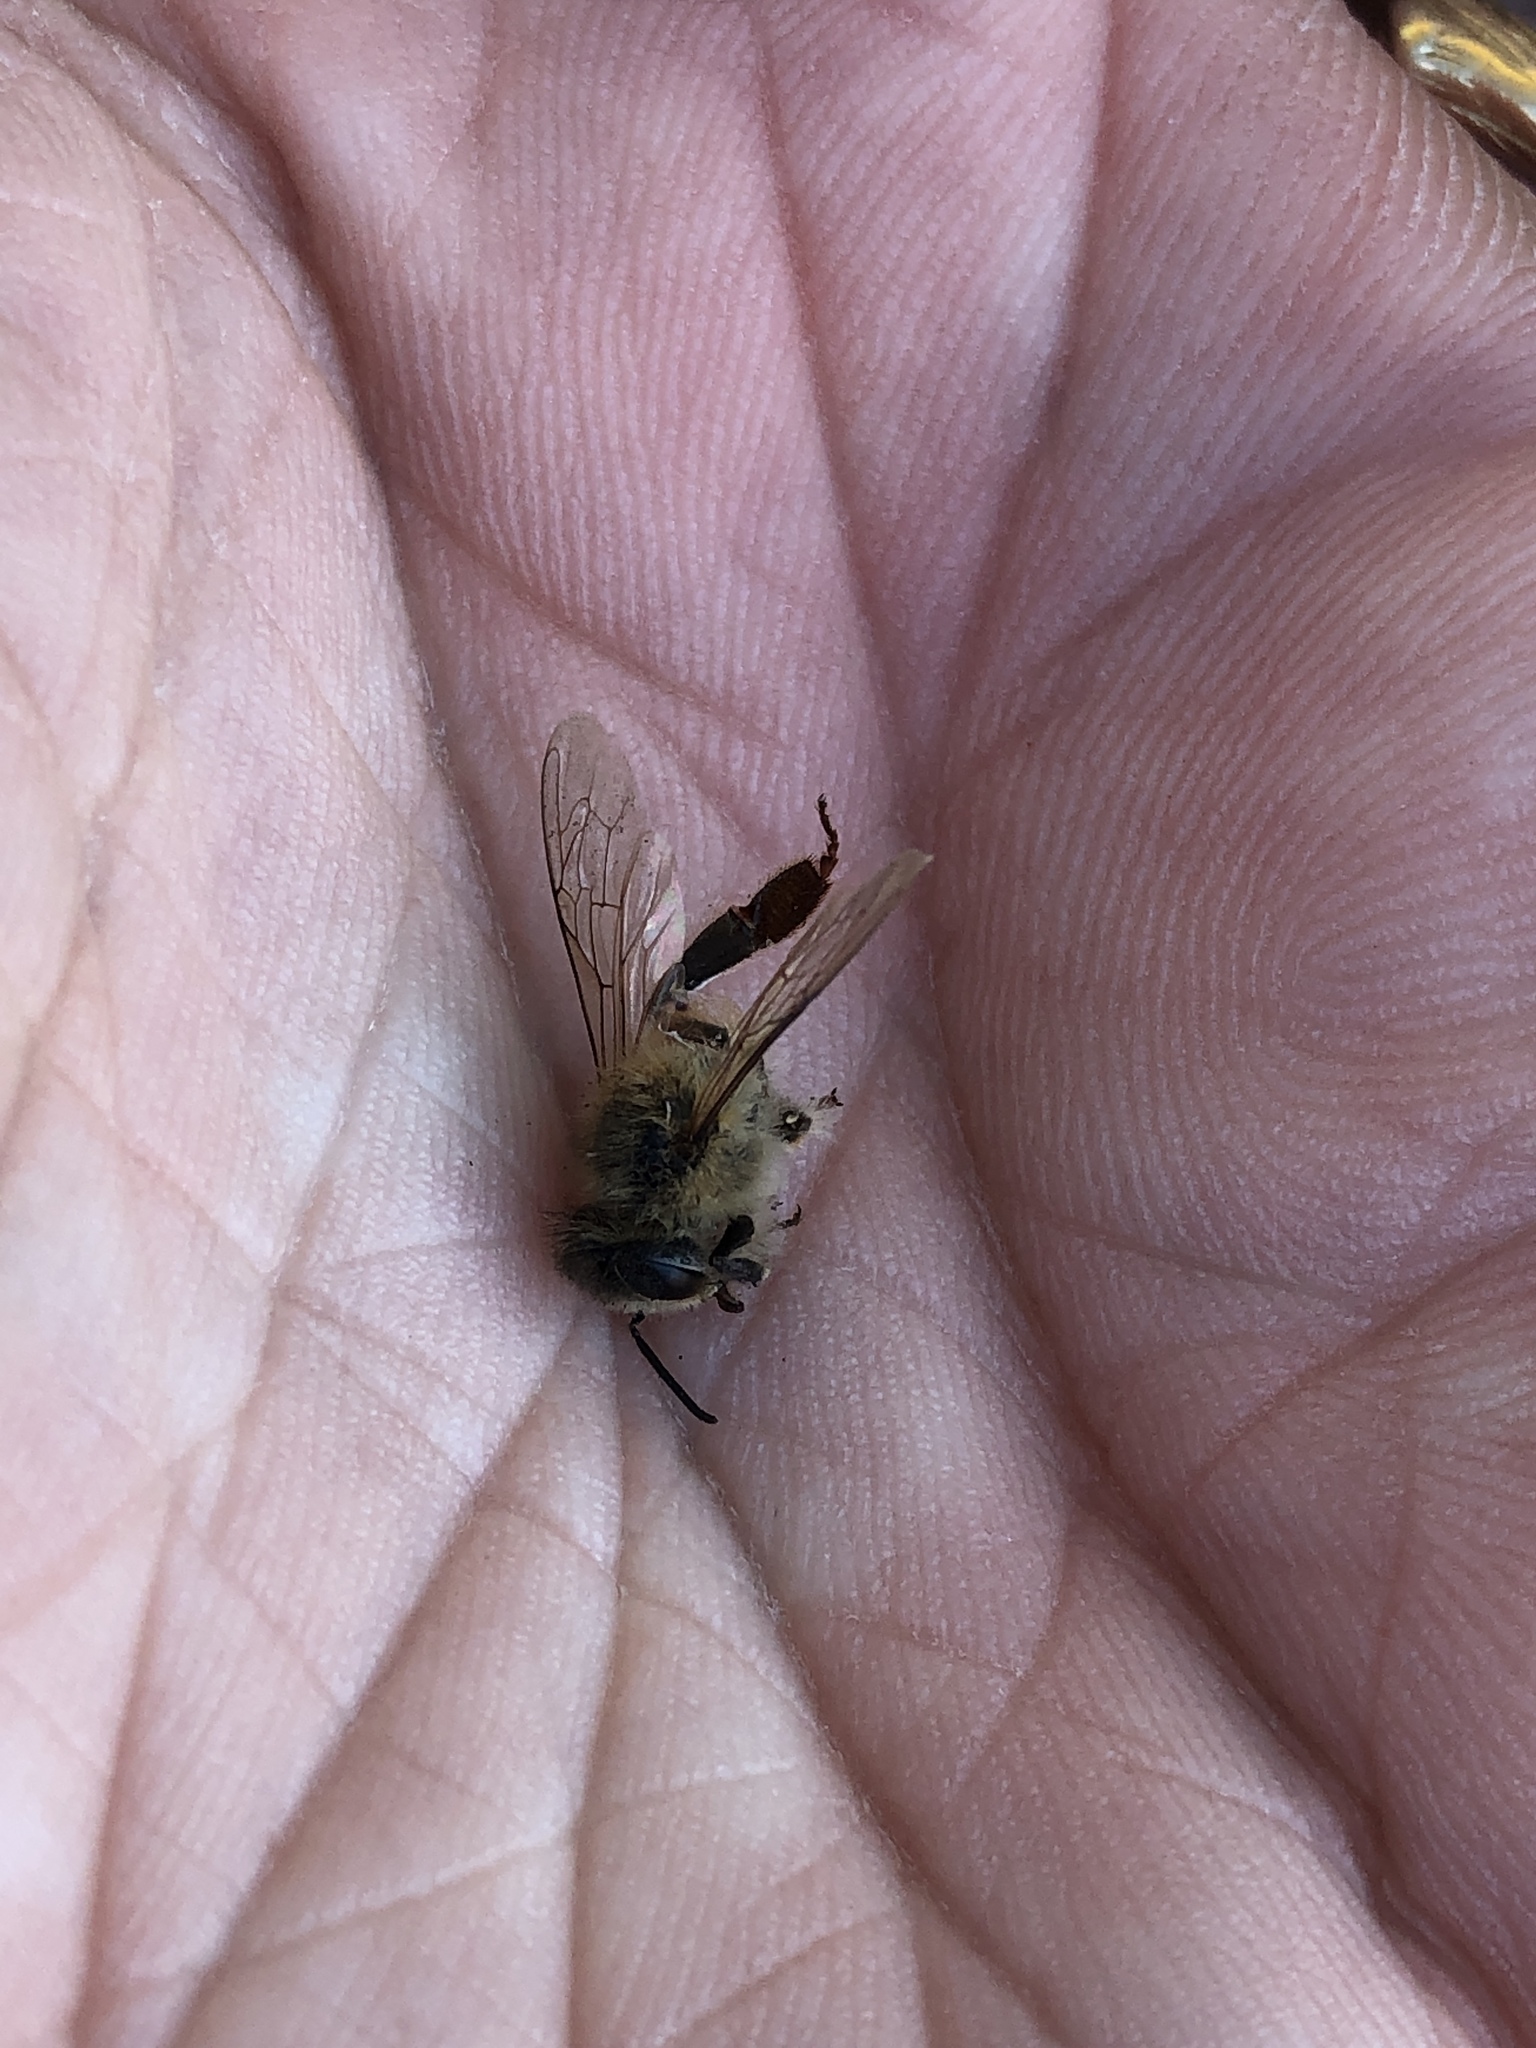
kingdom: Animalia
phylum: Arthropoda
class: Insecta
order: Hymenoptera
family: Apidae
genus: Apis
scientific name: Apis mellifera
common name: Honey bee
